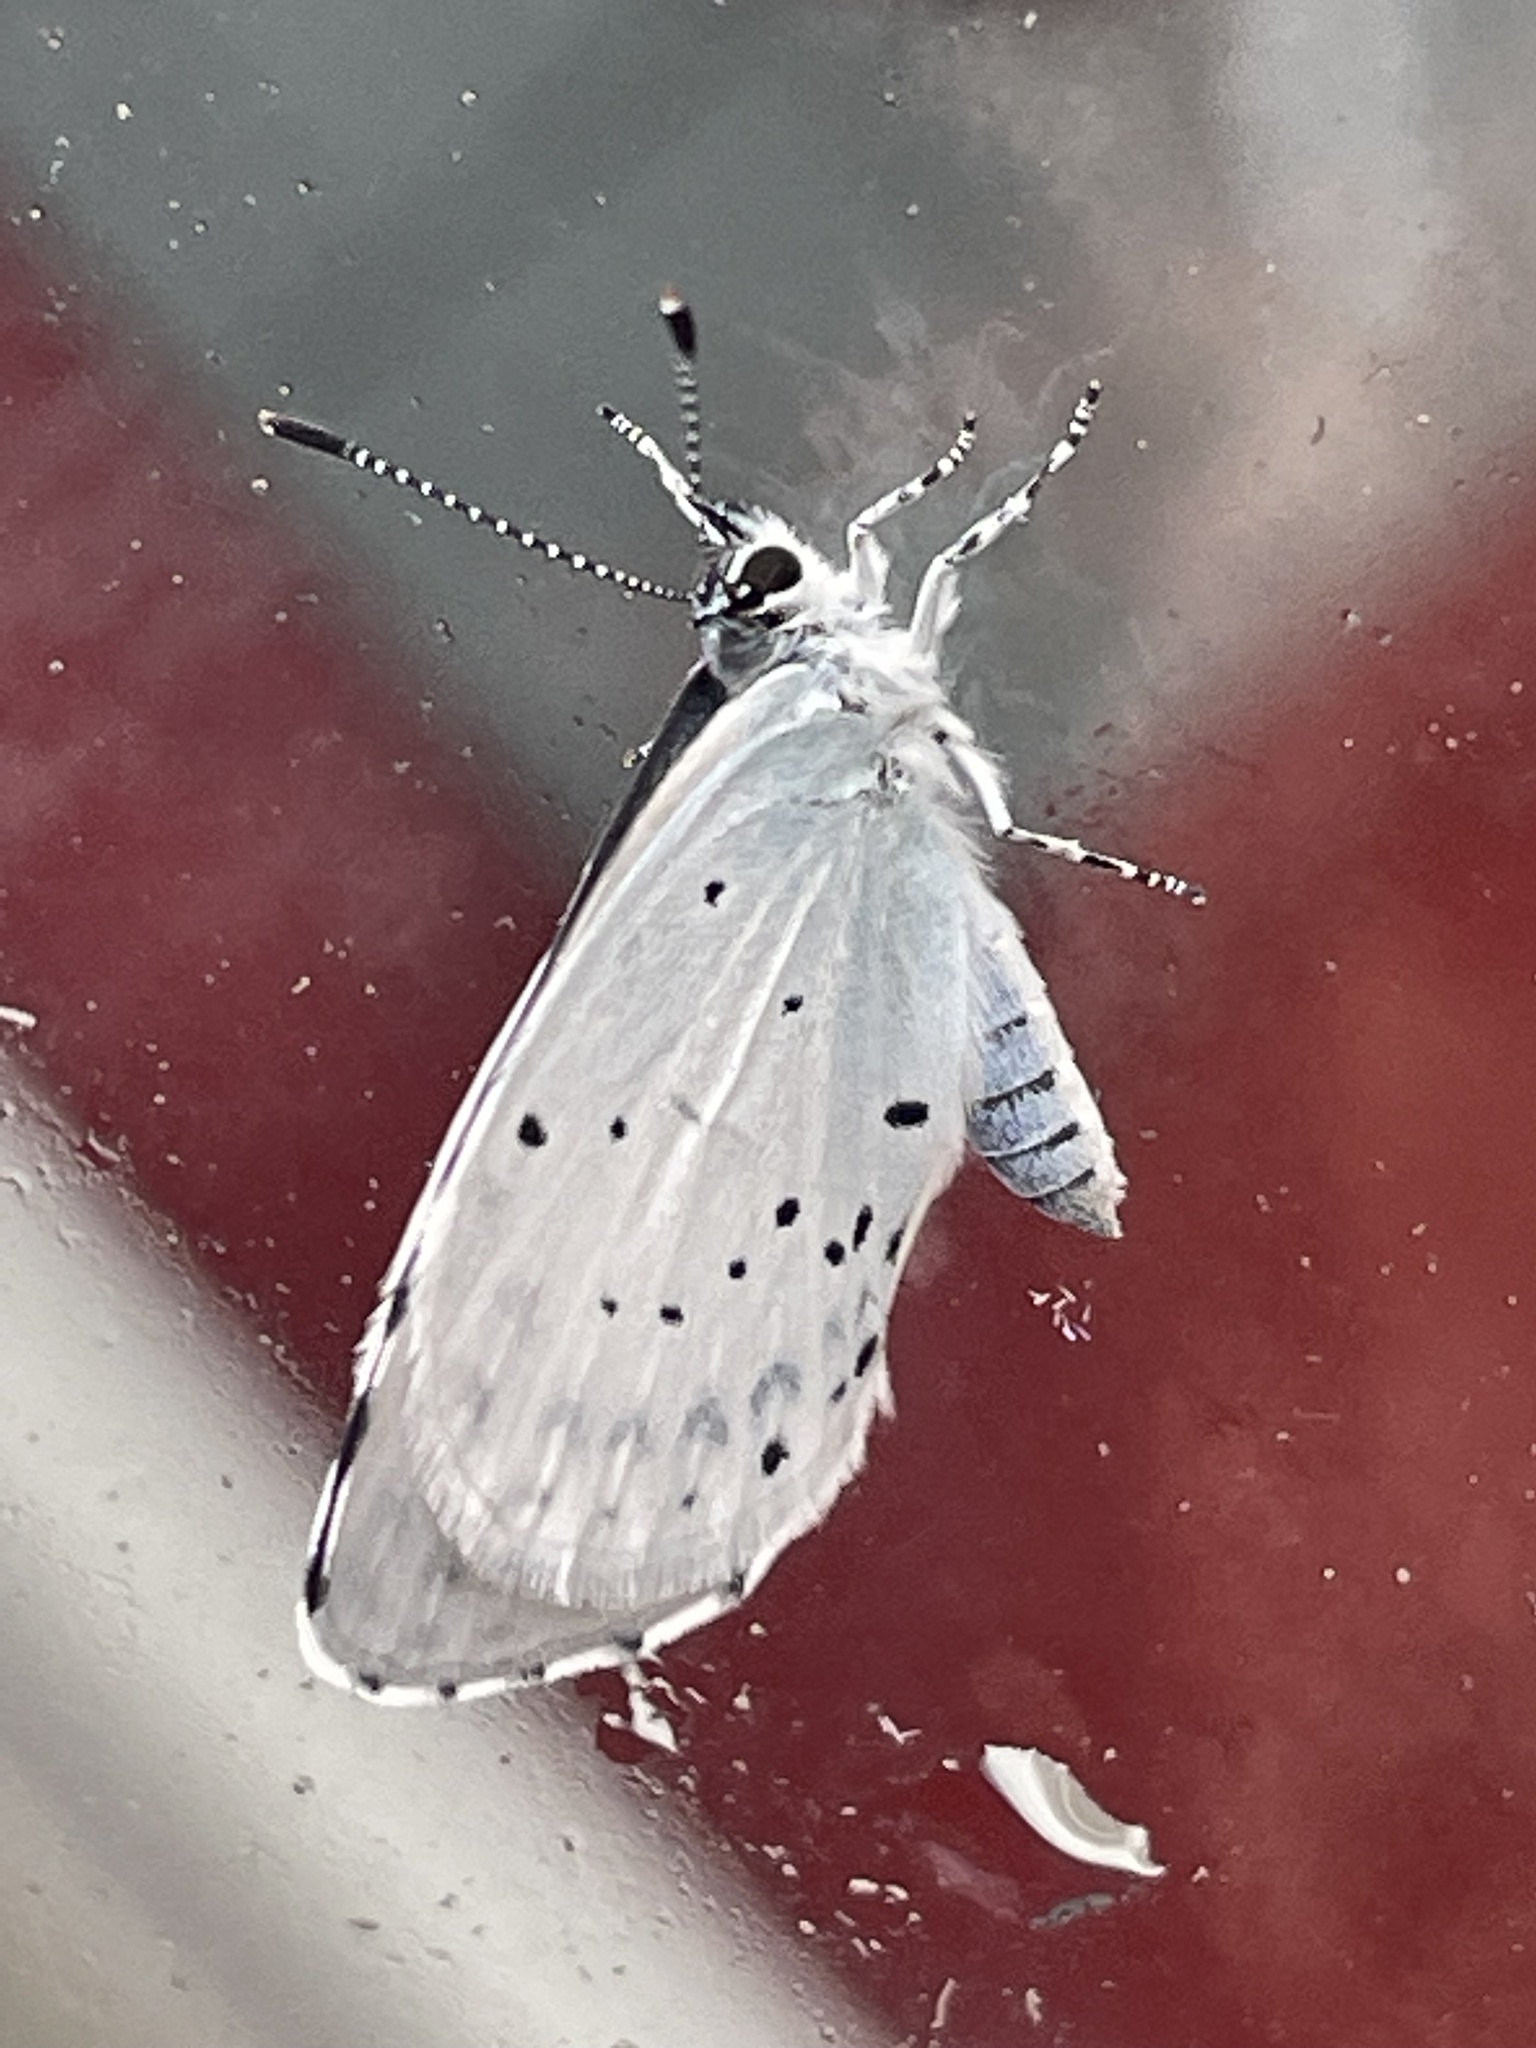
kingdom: Animalia
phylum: Arthropoda
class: Insecta
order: Lepidoptera
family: Lycaenidae
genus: Celastrina
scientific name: Celastrina argiolus
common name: Holly blue
